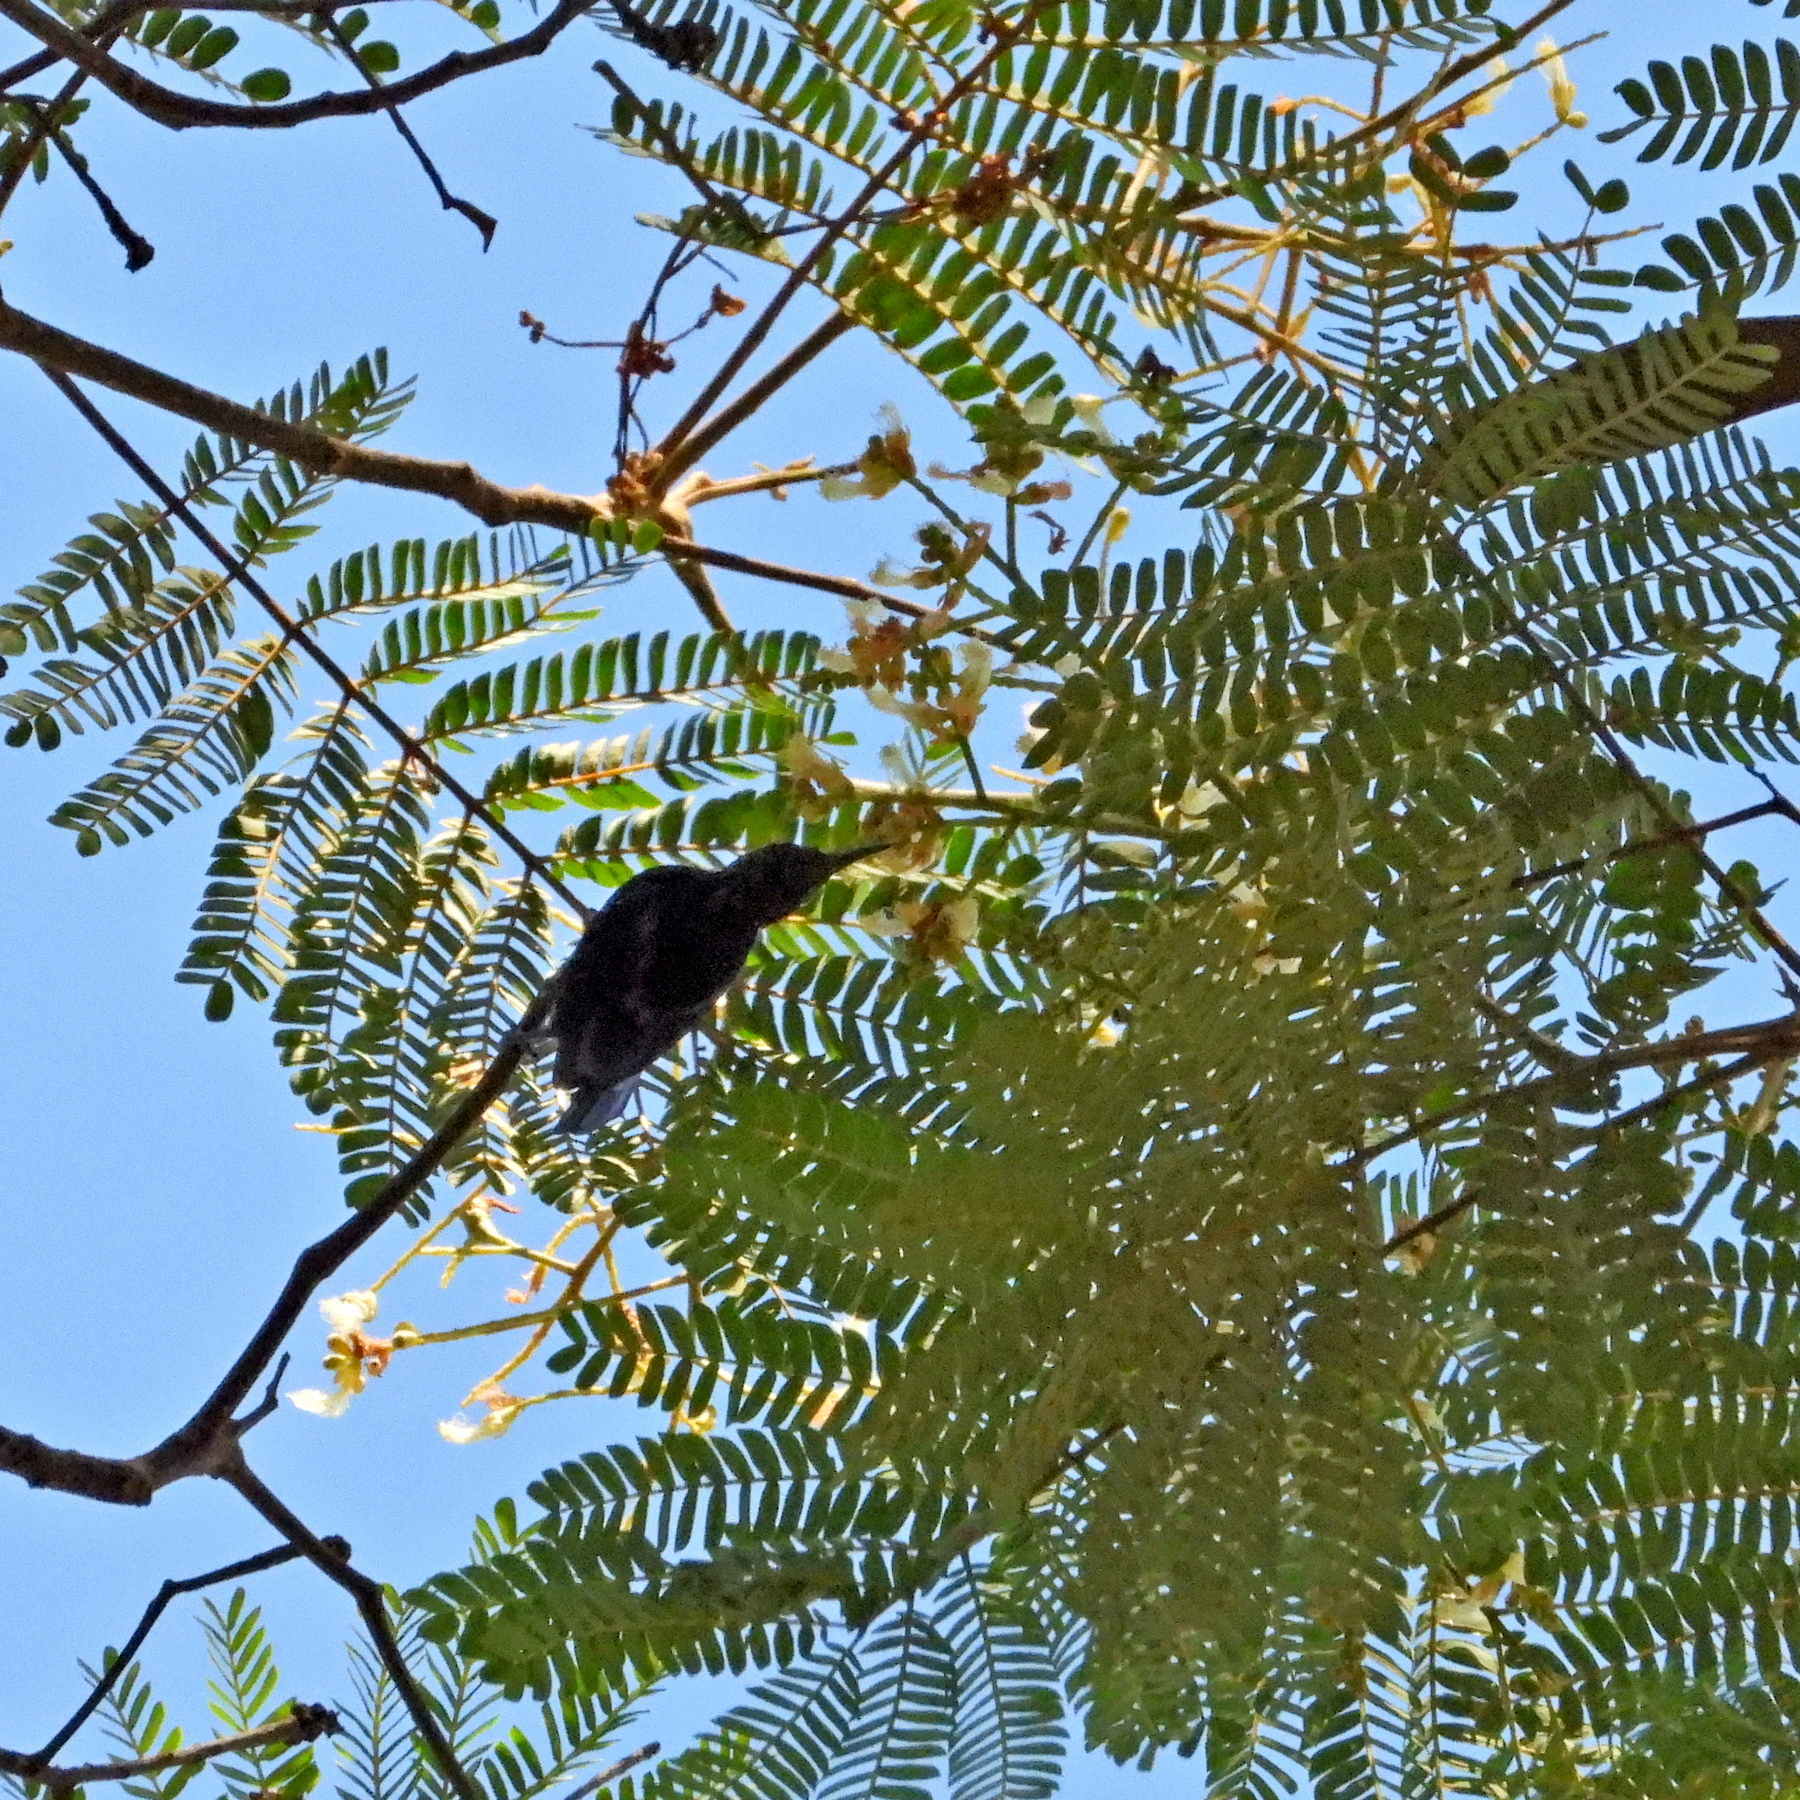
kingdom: Animalia
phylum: Chordata
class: Aves
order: Passeriformes
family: Nectariniidae
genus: Leptocoma
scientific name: Leptocoma sericea
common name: Black sunbird
